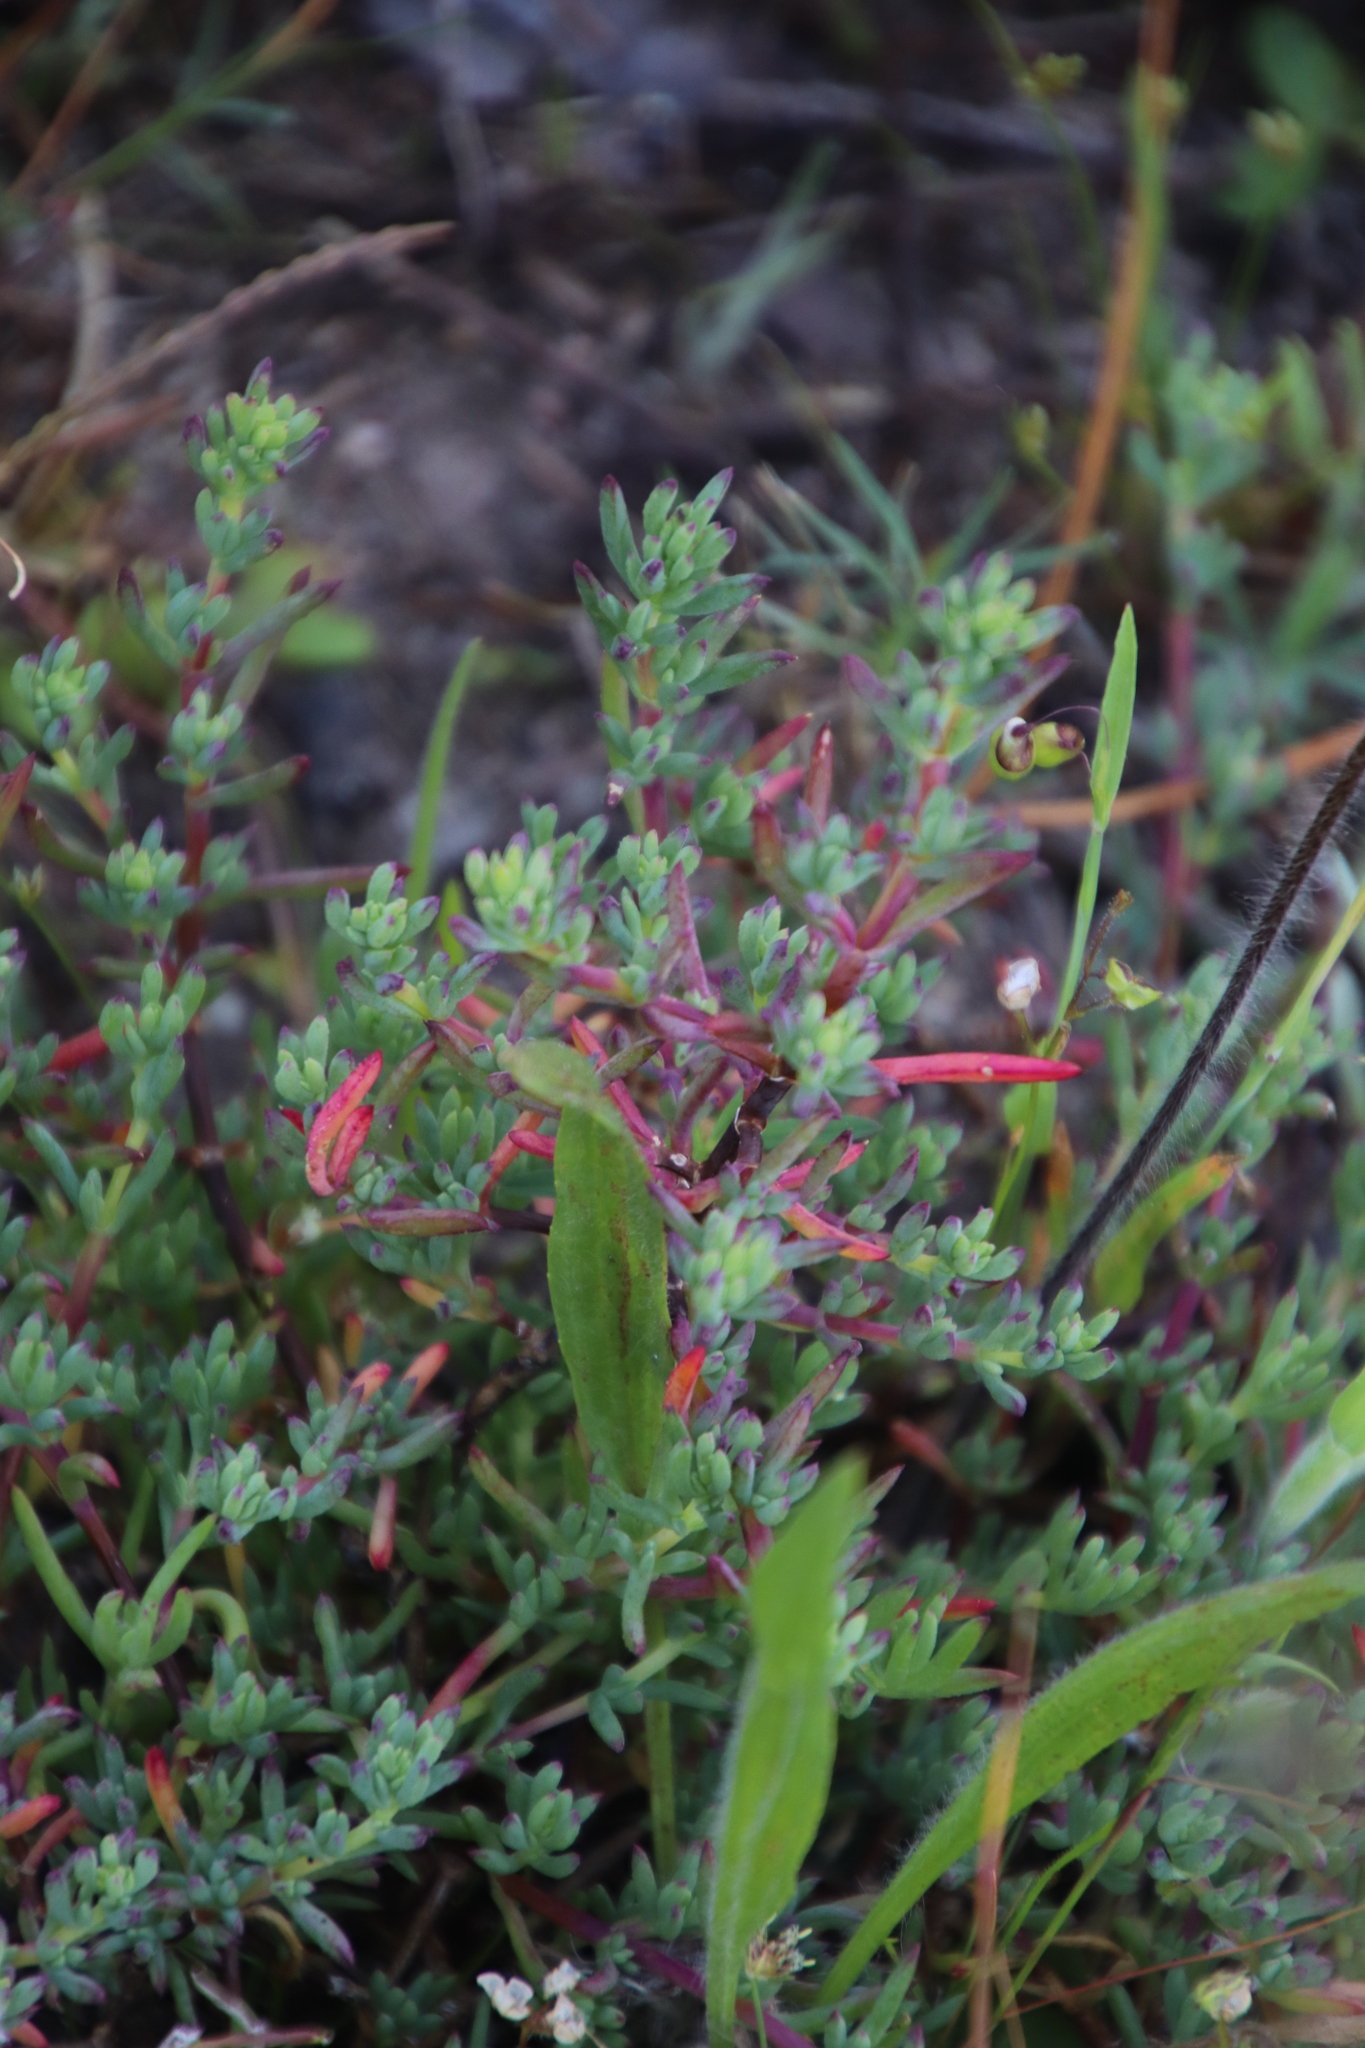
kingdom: Plantae
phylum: Tracheophyta
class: Magnoliopsida
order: Caryophyllales
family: Aizoaceae
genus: Lampranthus
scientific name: Lampranthus emarginatus
